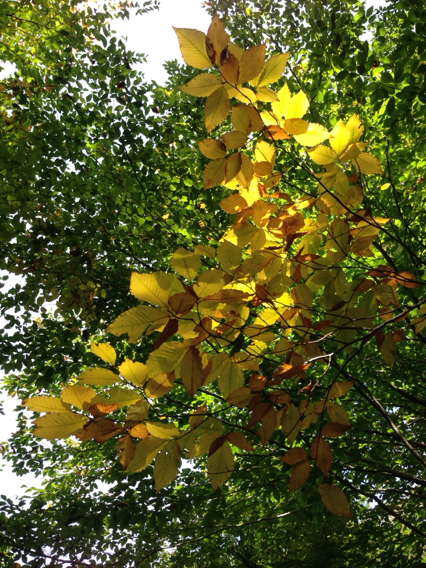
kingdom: Plantae
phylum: Tracheophyta
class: Magnoliopsida
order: Fagales
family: Fagaceae
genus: Fagus
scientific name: Fagus grandifolia
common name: American beech
